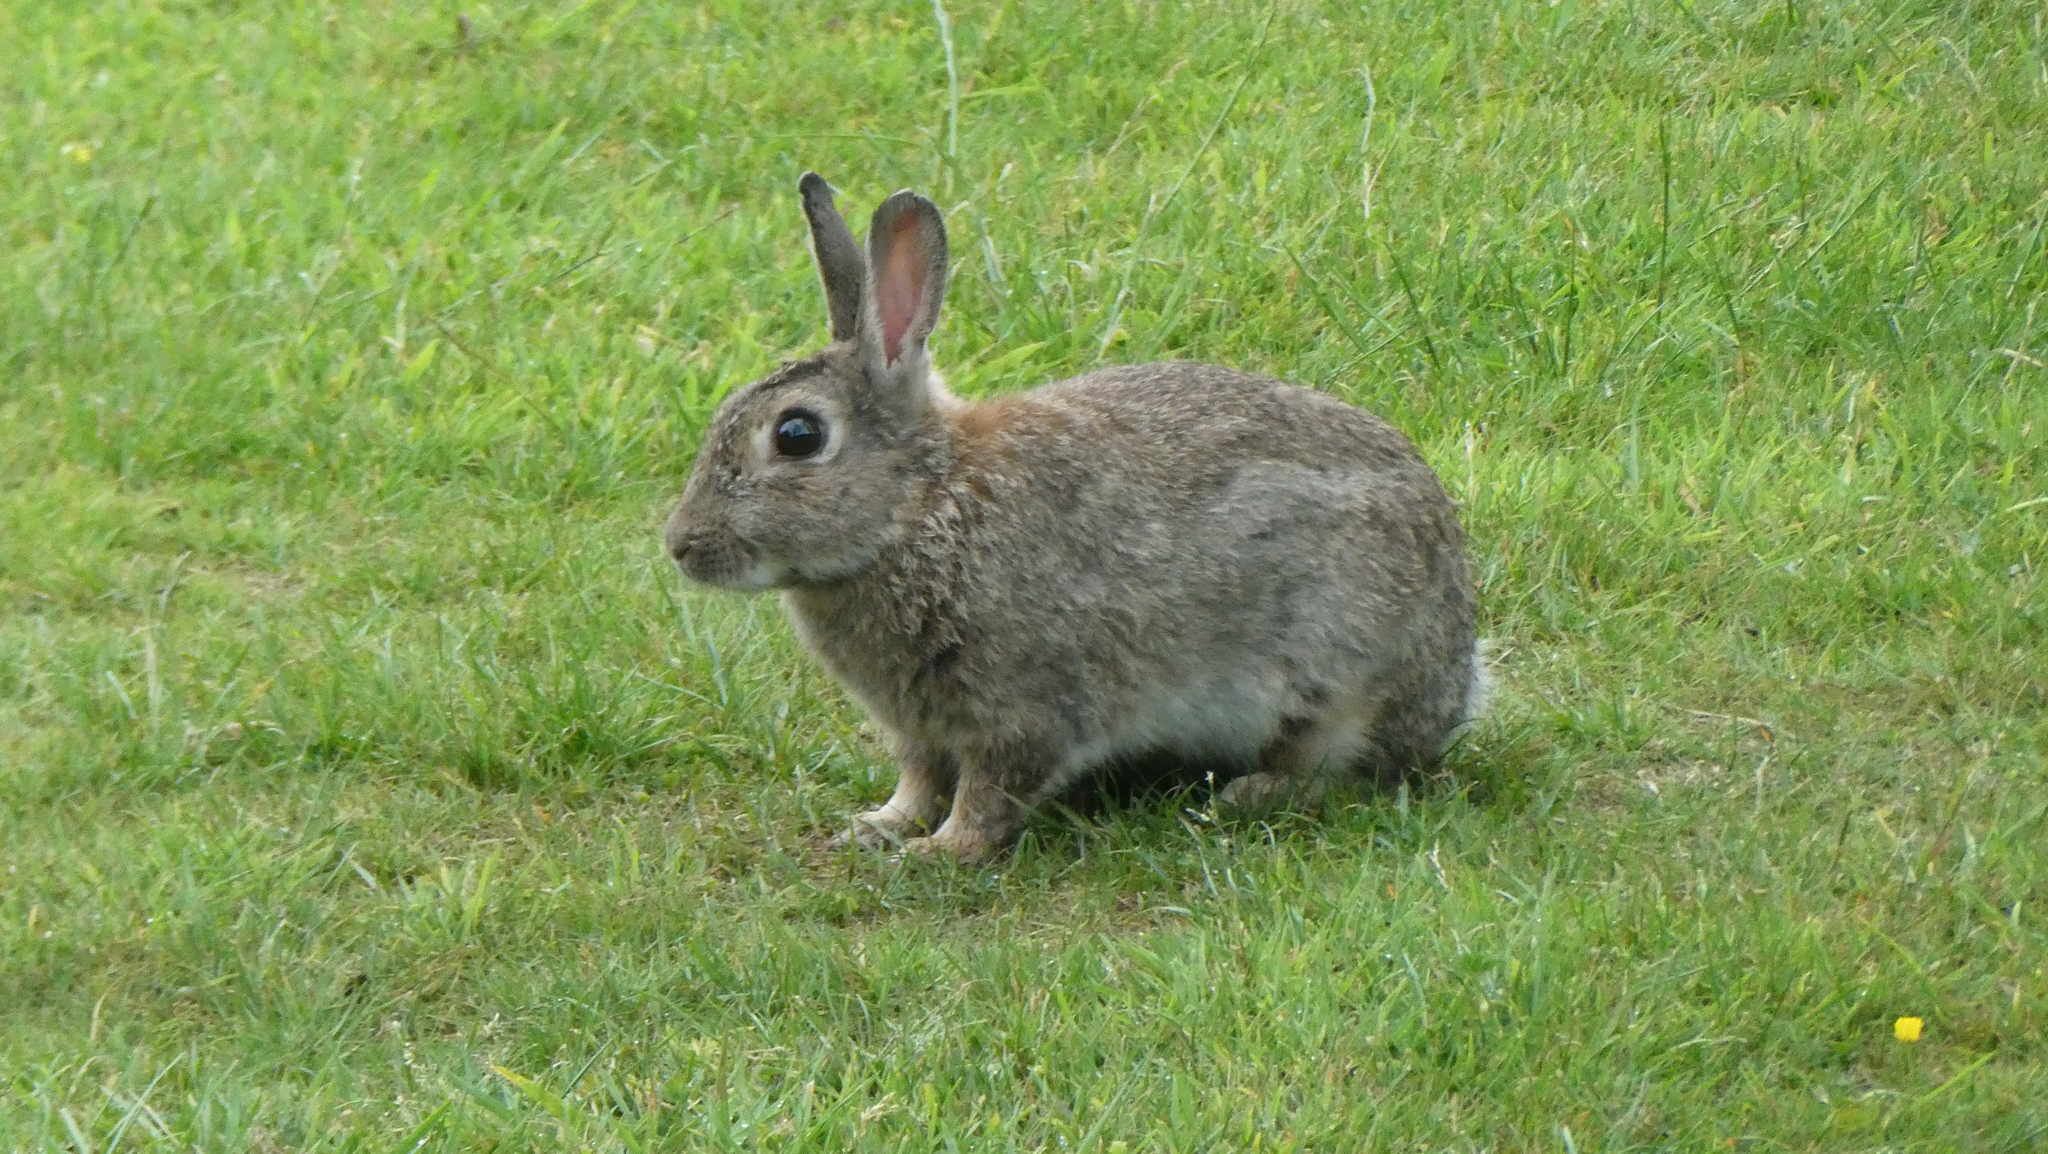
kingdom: Animalia
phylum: Chordata
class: Mammalia
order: Lagomorpha
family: Leporidae
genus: Oryctolagus
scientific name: Oryctolagus cuniculus
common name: European rabbit
